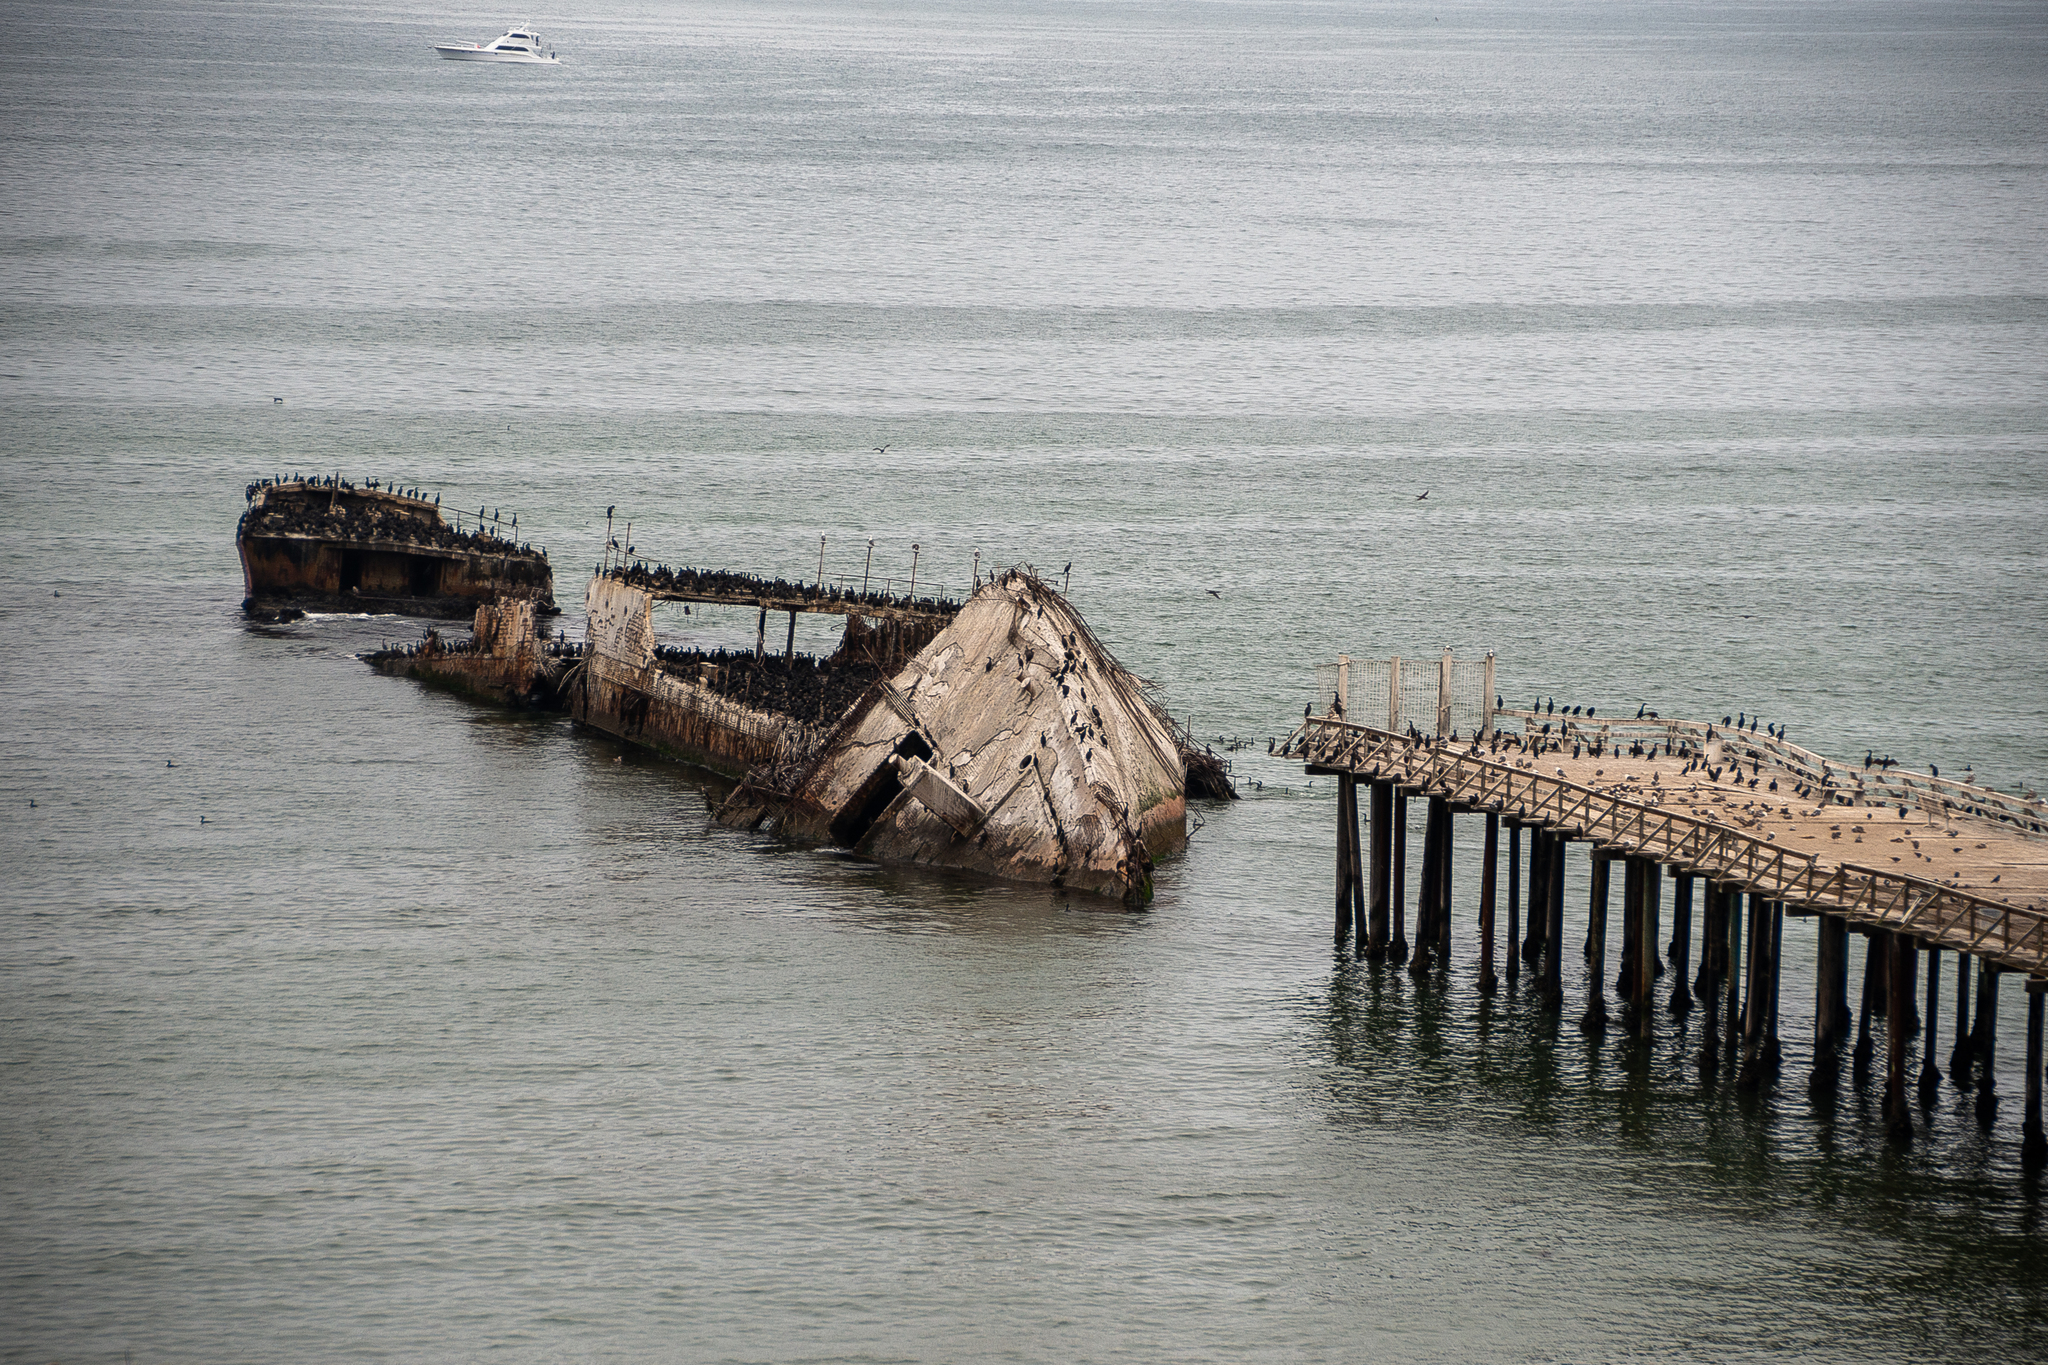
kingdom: Animalia
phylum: Chordata
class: Aves
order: Suliformes
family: Phalacrocoracidae
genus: Urile
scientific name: Urile penicillatus
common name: Brandt's cormorant
